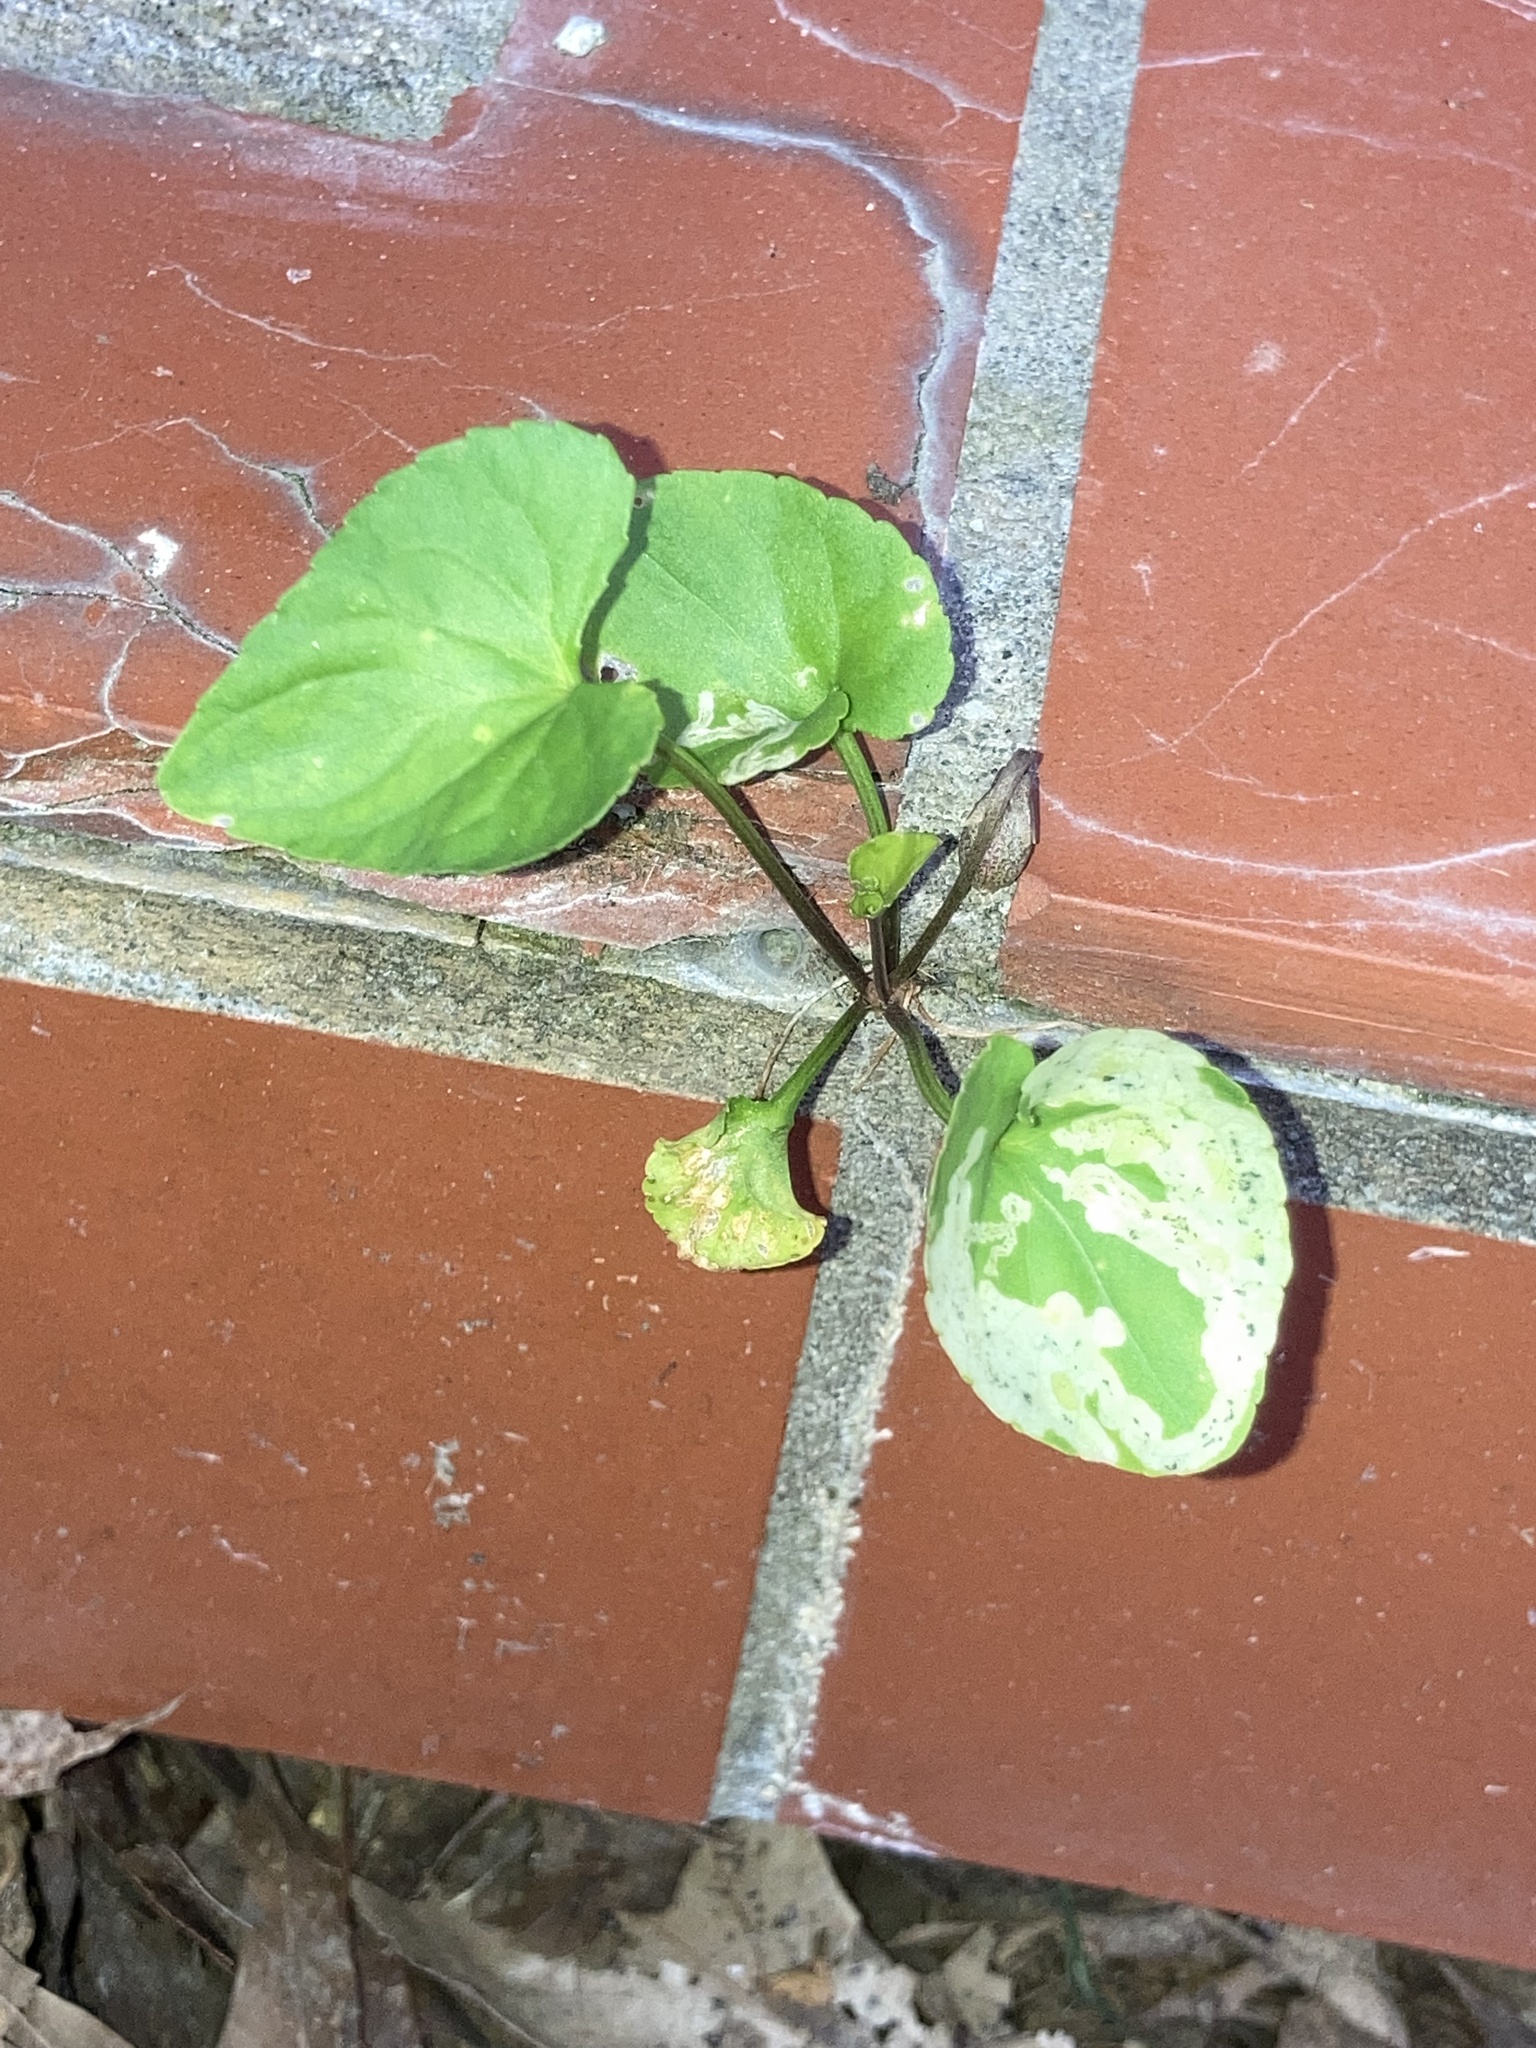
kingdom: Animalia
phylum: Arthropoda
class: Insecta
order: Diptera
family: Agromyzidae
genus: Liriomyza
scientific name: Liriomyza violivora
